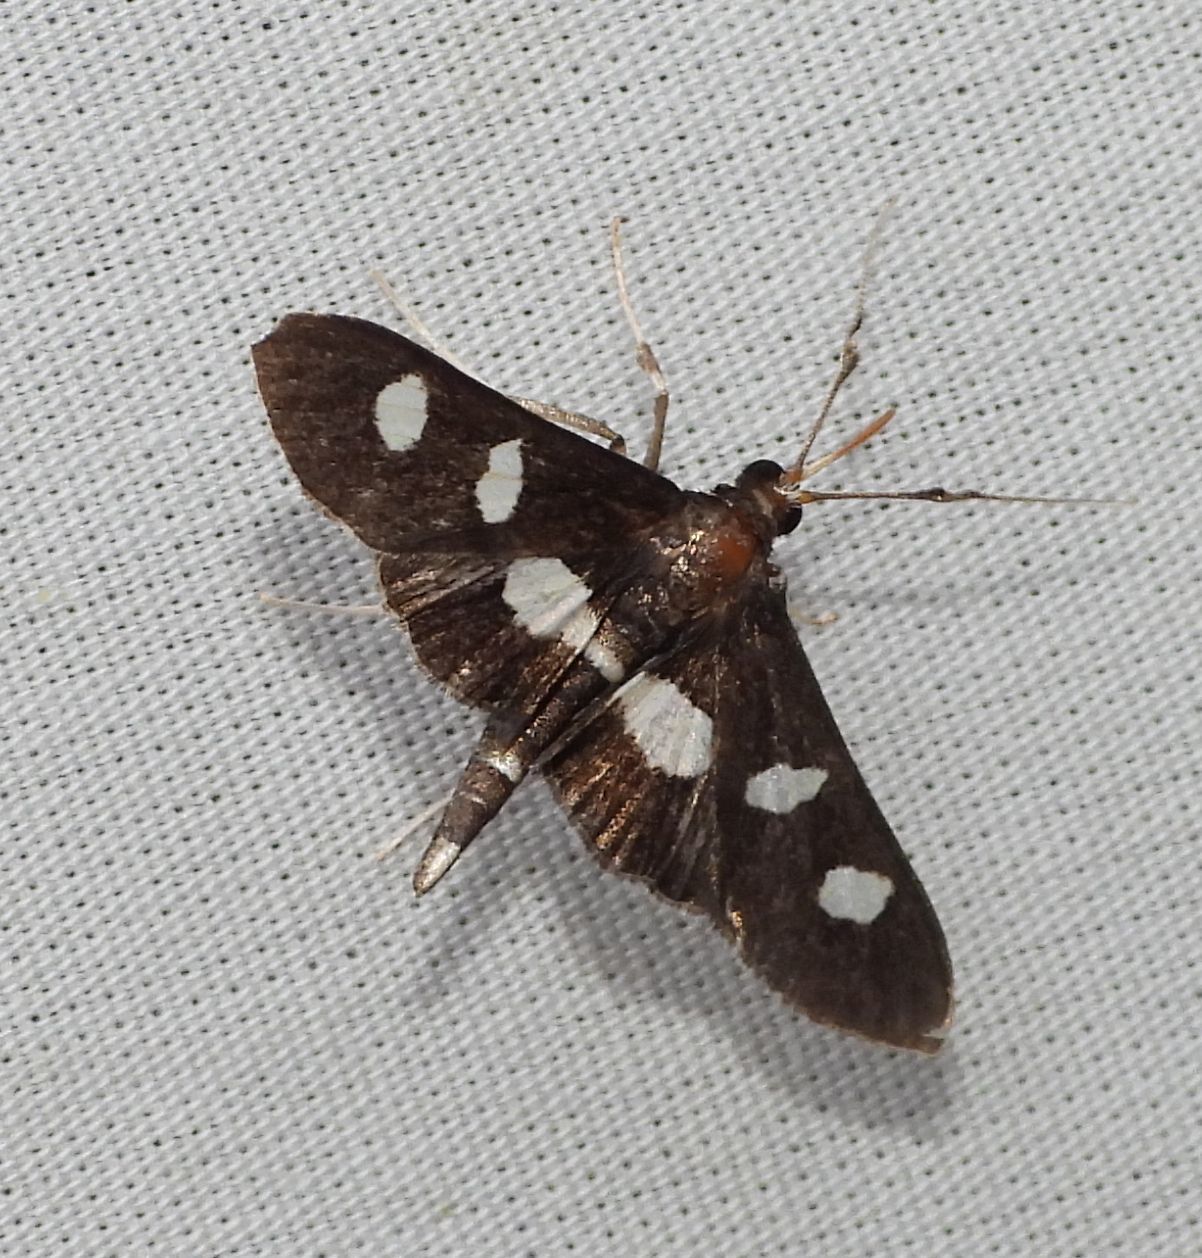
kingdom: Animalia
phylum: Arthropoda
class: Insecta
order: Lepidoptera
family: Crambidae
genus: Desmia
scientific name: Desmia
